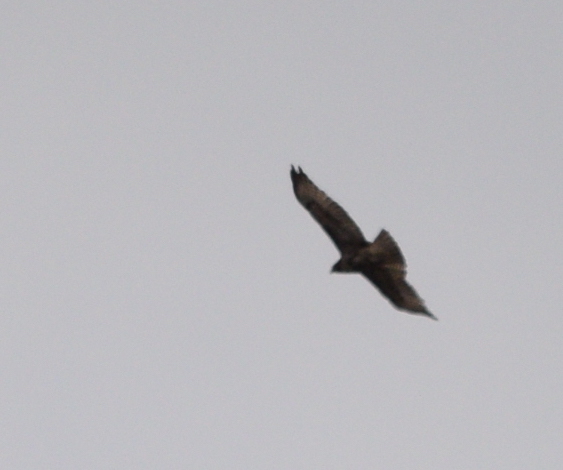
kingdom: Animalia
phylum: Chordata
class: Aves
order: Accipitriformes
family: Accipitridae
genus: Buteo
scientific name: Buteo jamaicensis
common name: Red-tailed hawk
